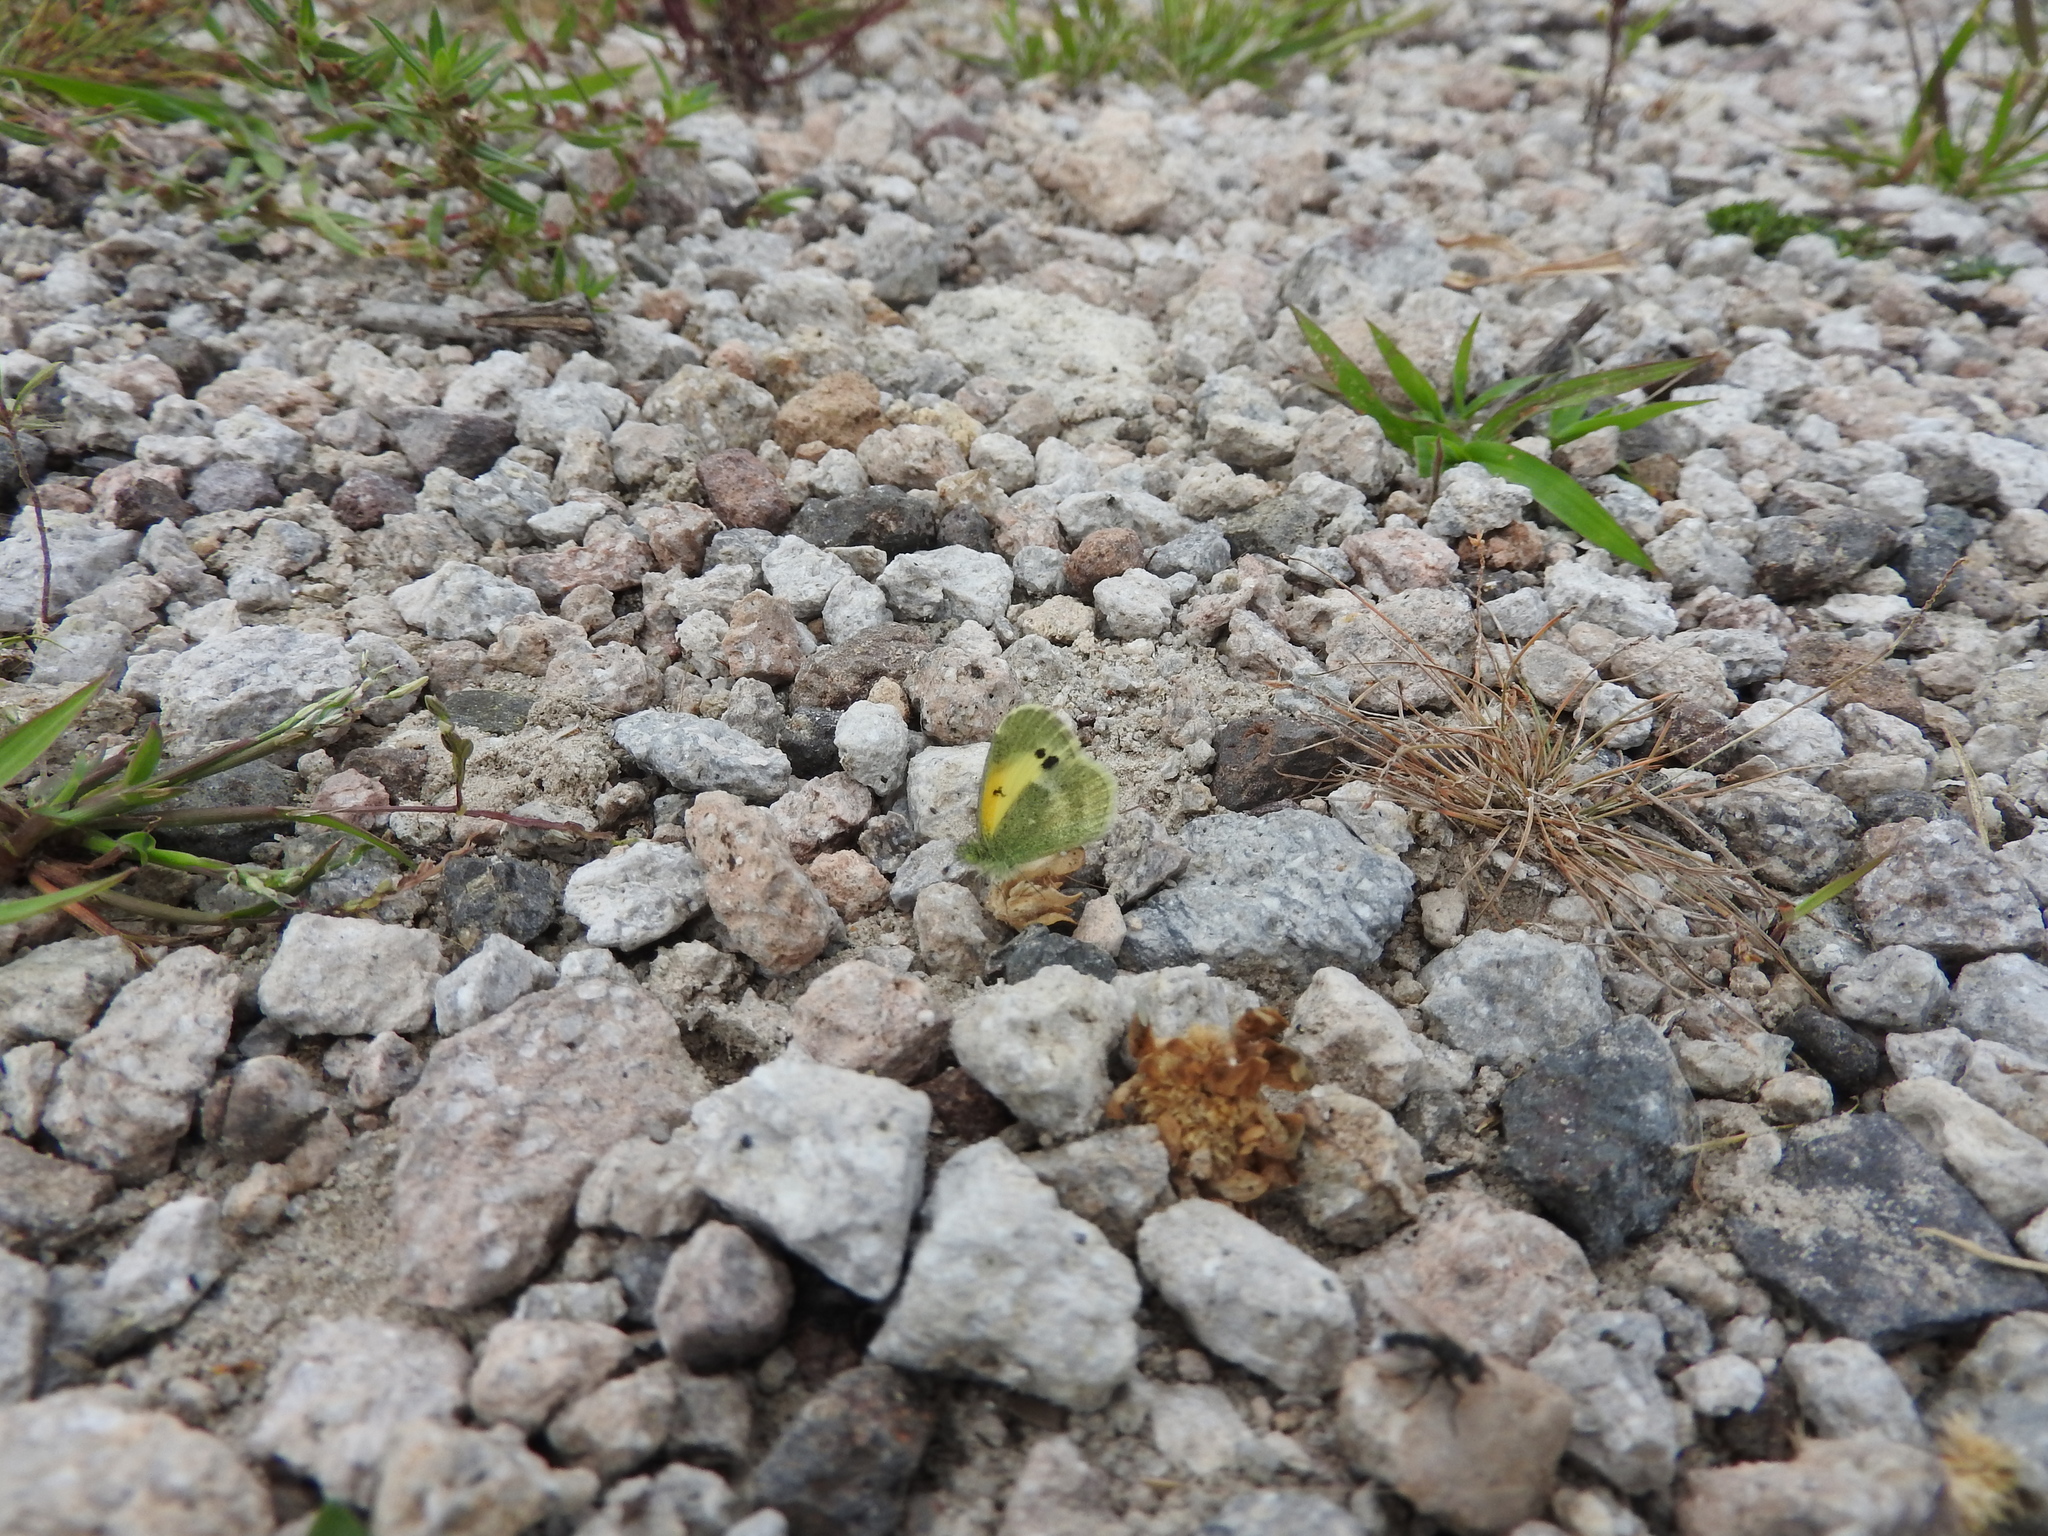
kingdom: Animalia
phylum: Arthropoda
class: Insecta
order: Lepidoptera
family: Pieridae
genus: Nathalis
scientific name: Nathalis iole
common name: Dainty sulphur
